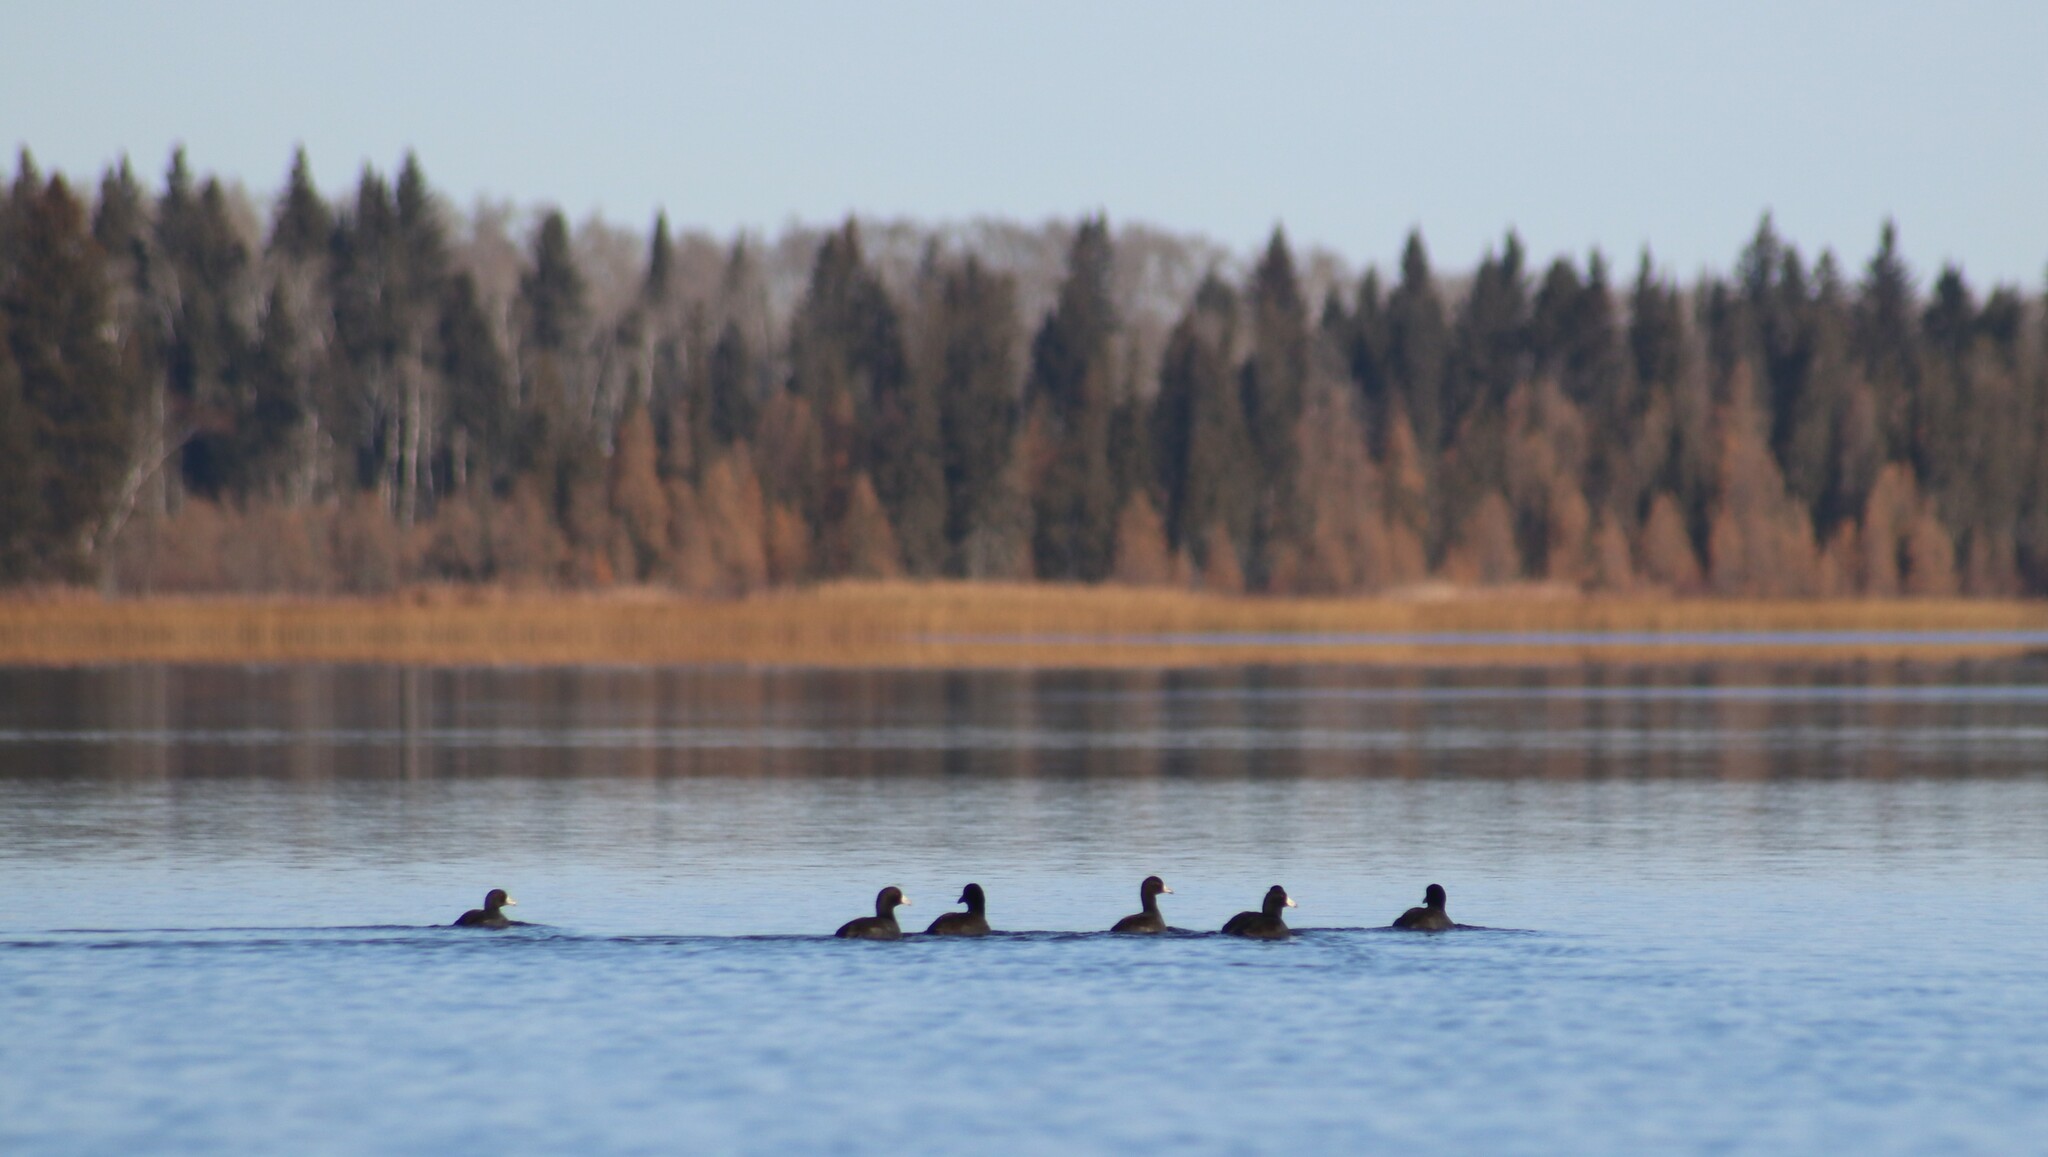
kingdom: Animalia
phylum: Chordata
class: Aves
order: Gruiformes
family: Rallidae
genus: Fulica
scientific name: Fulica americana
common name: American coot
